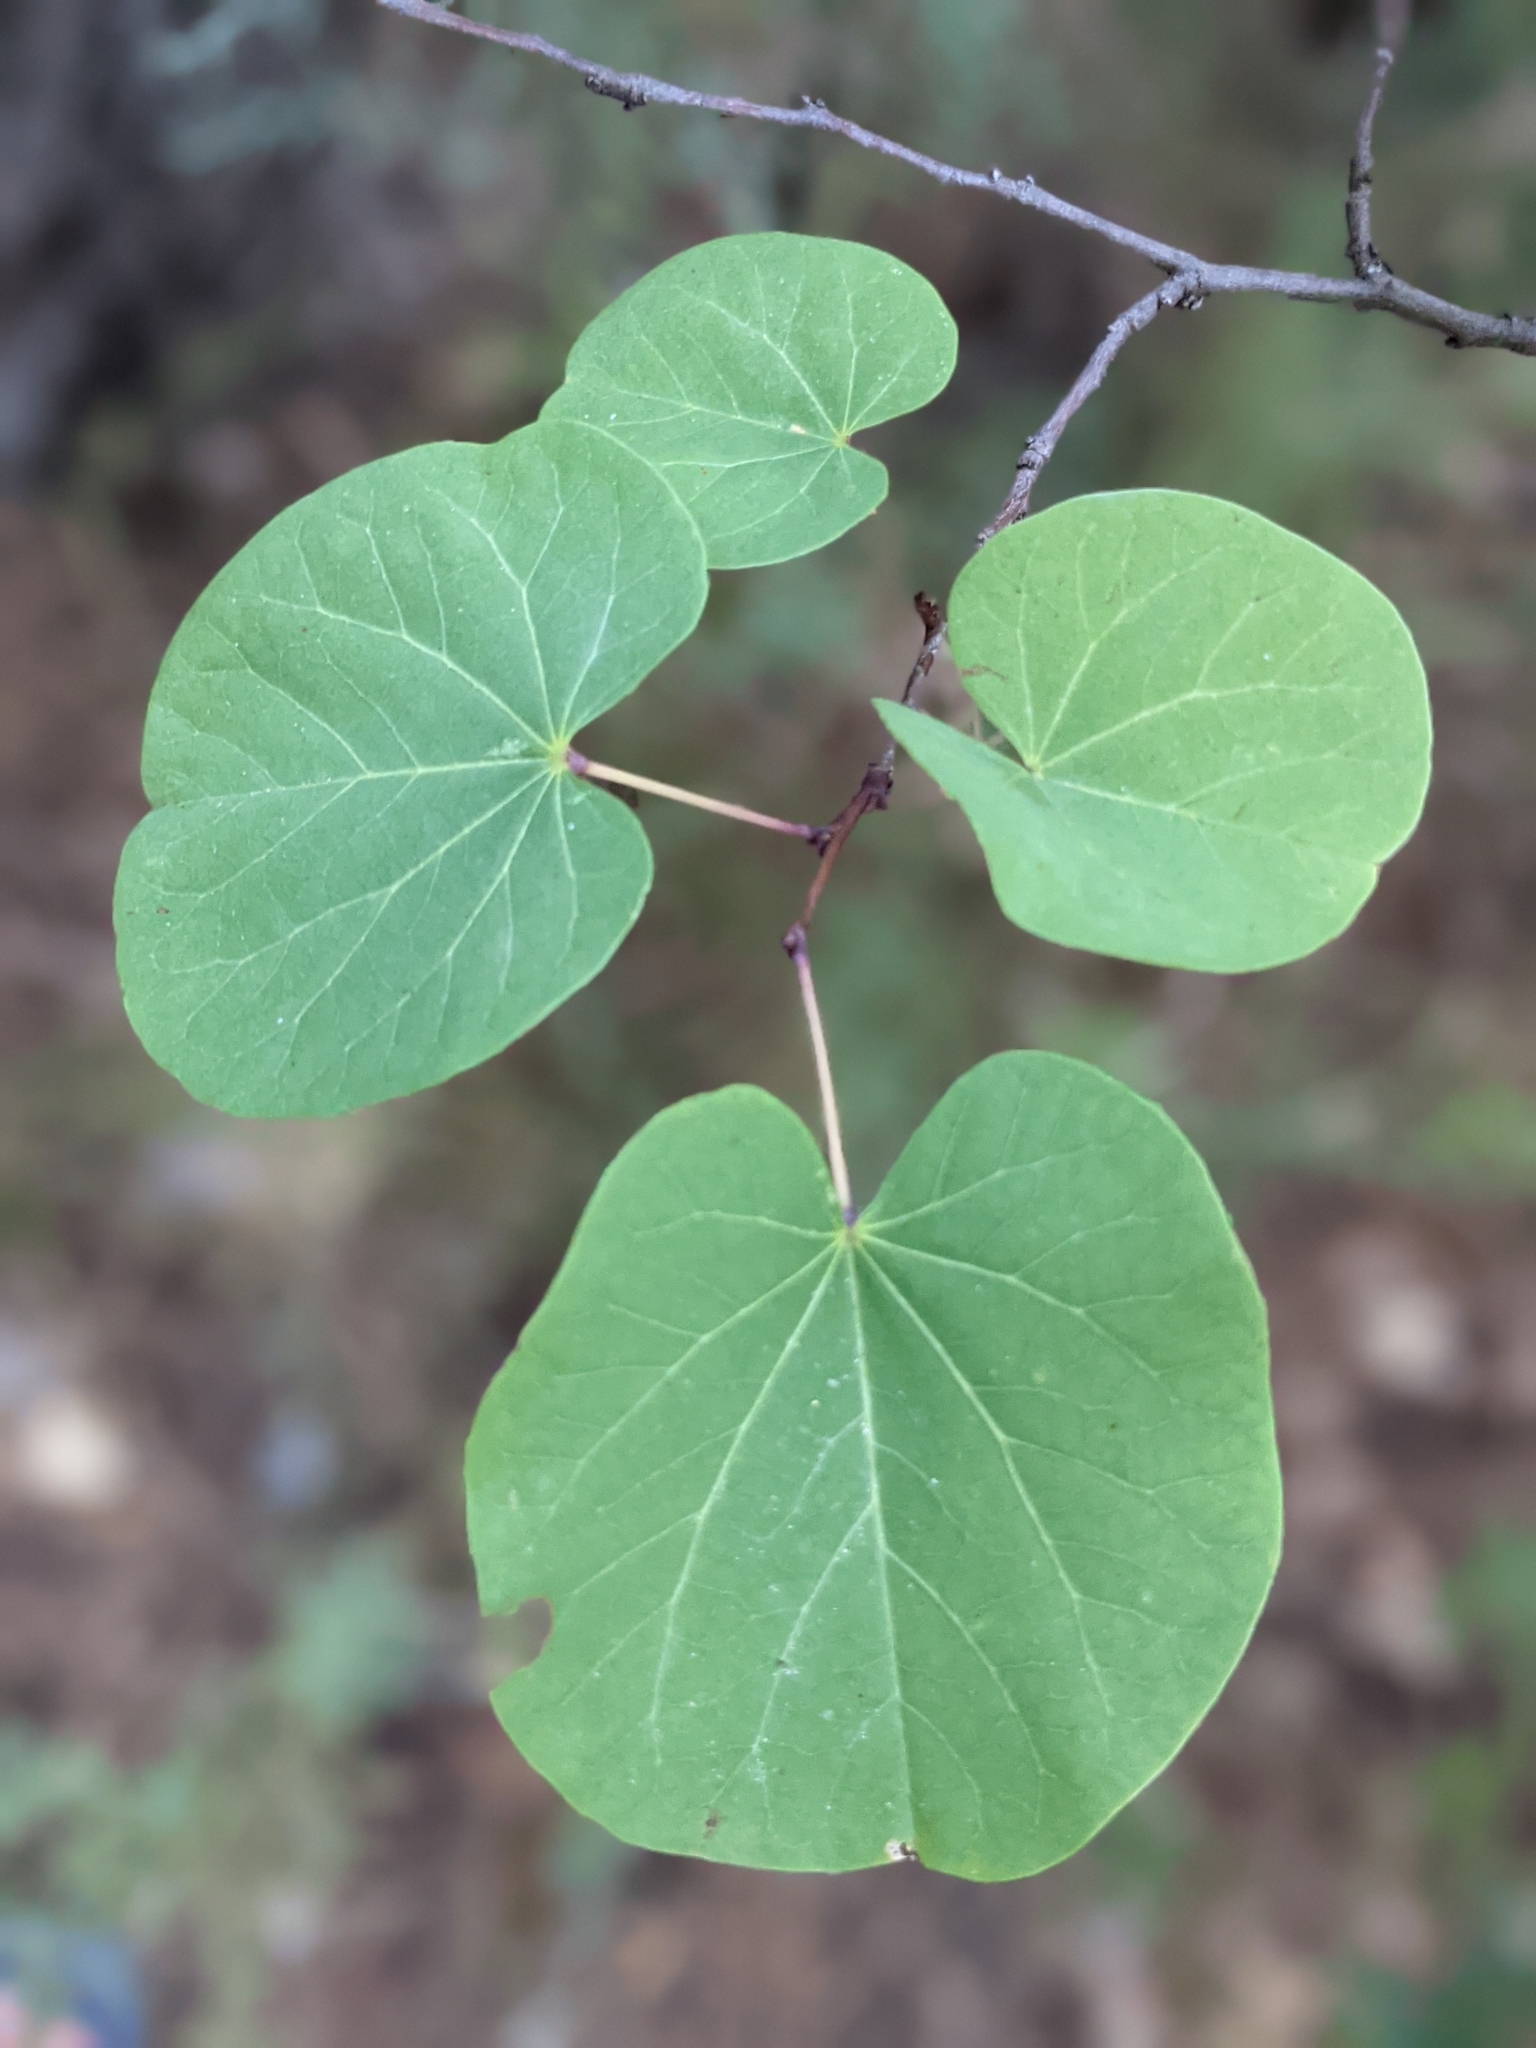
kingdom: Plantae
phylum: Tracheophyta
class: Magnoliopsida
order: Fabales
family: Fabaceae
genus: Cercis
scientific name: Cercis siliquastrum
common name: Judas tree
